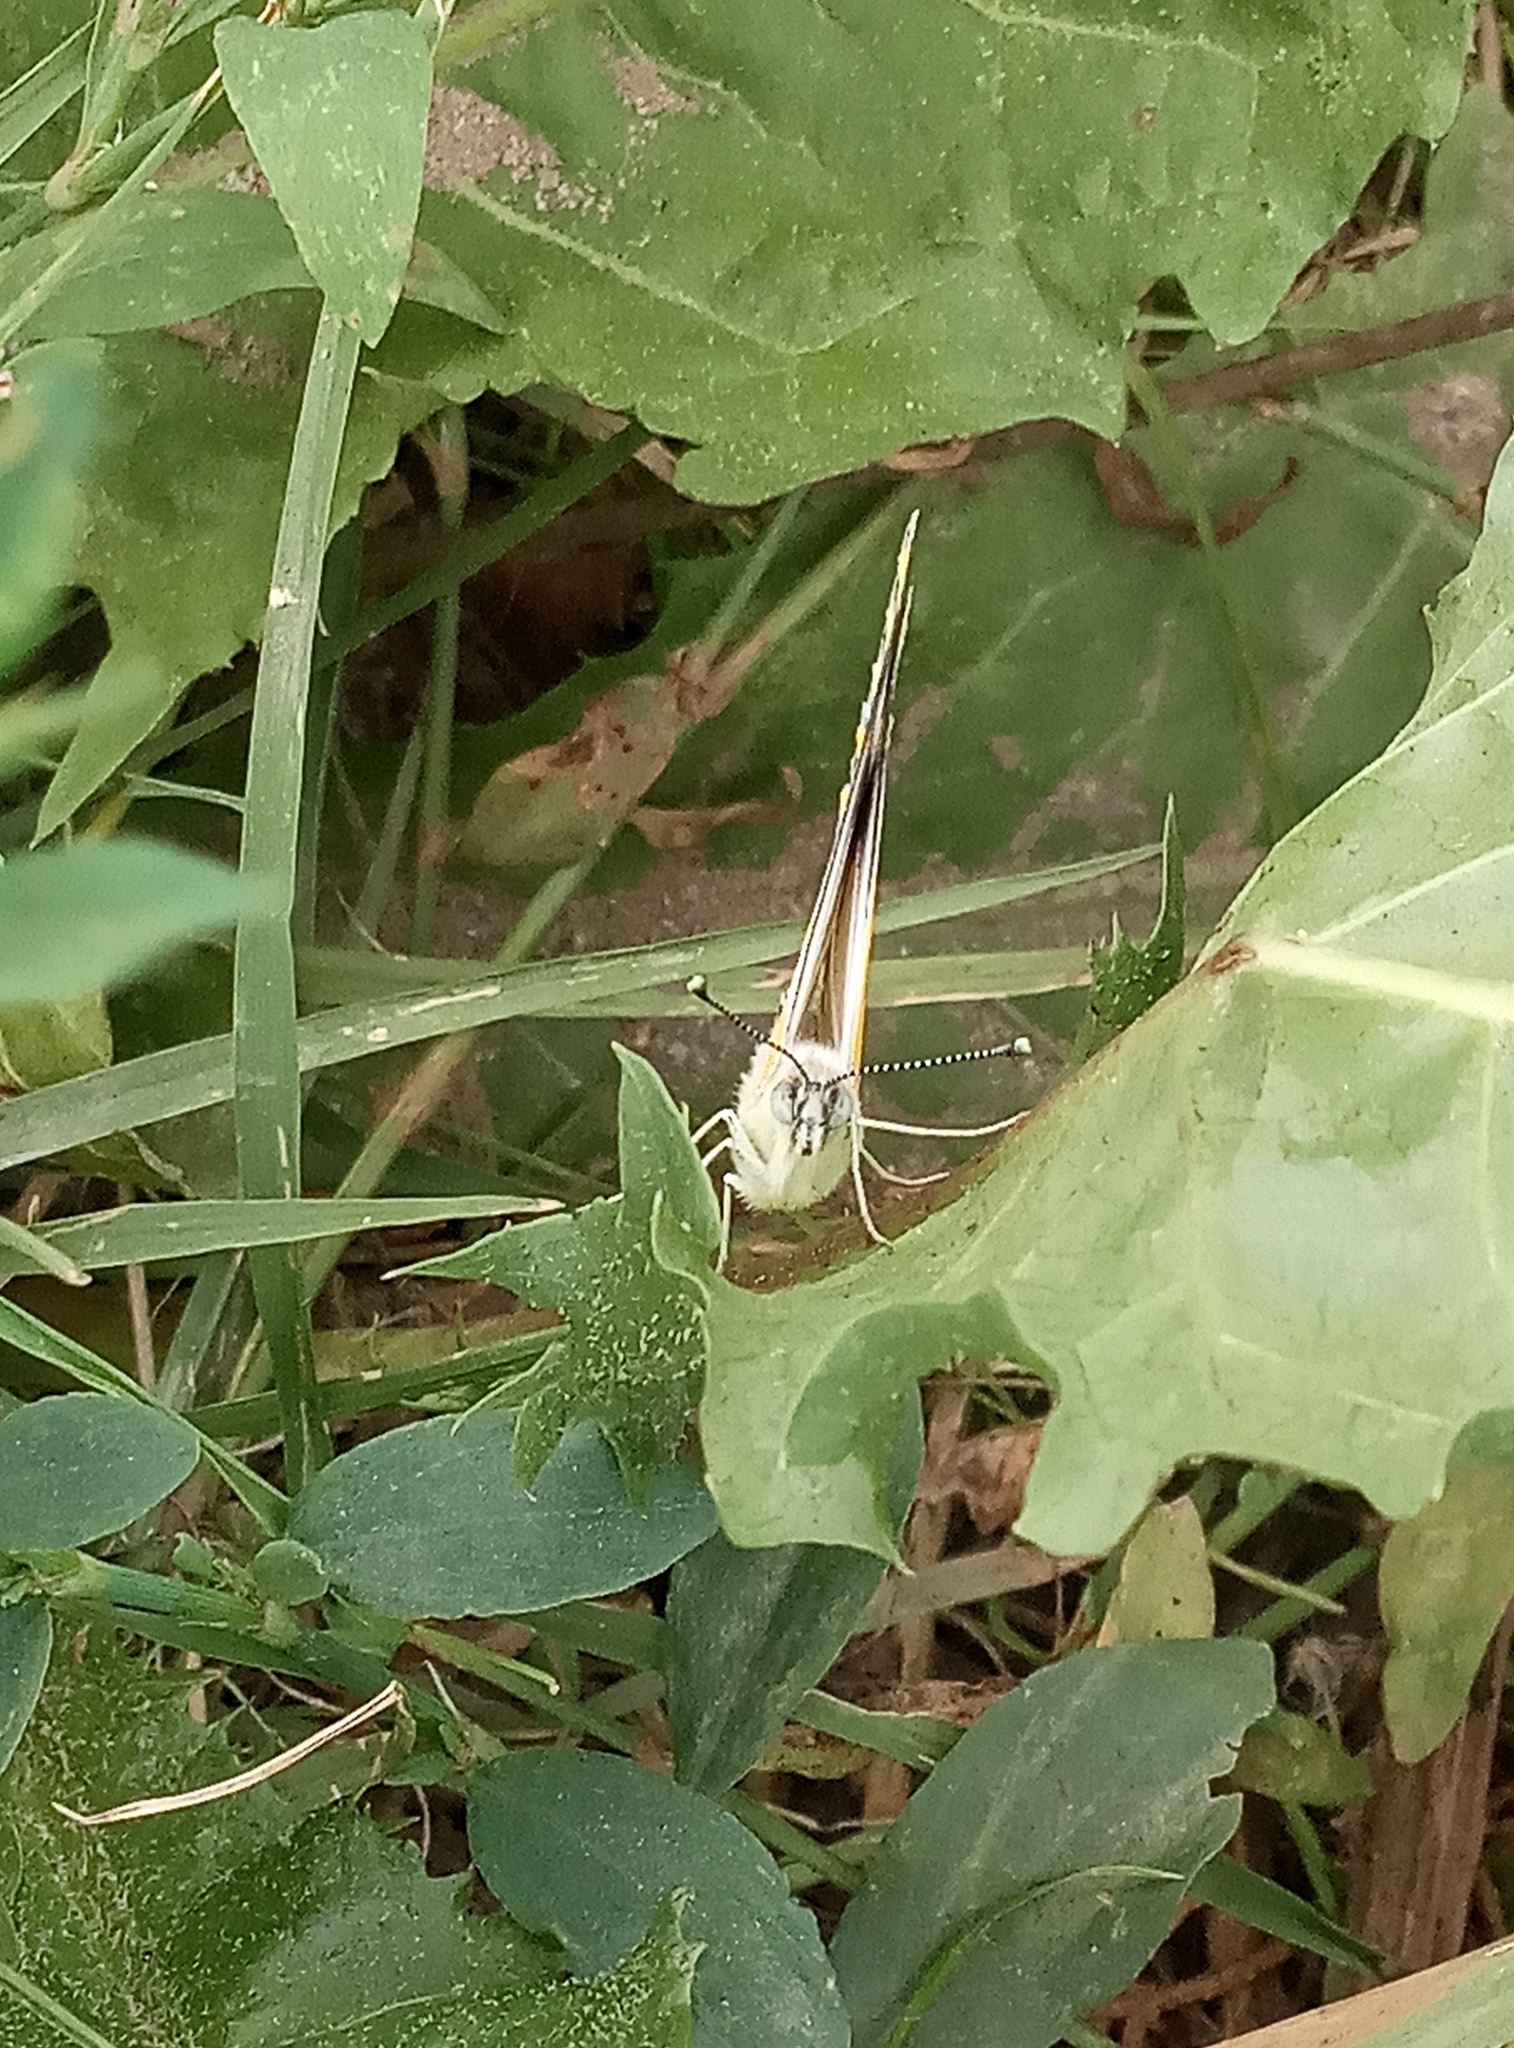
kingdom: Animalia
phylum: Arthropoda
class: Insecta
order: Lepidoptera
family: Pieridae
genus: Tatochila
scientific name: Tatochila mercedis
